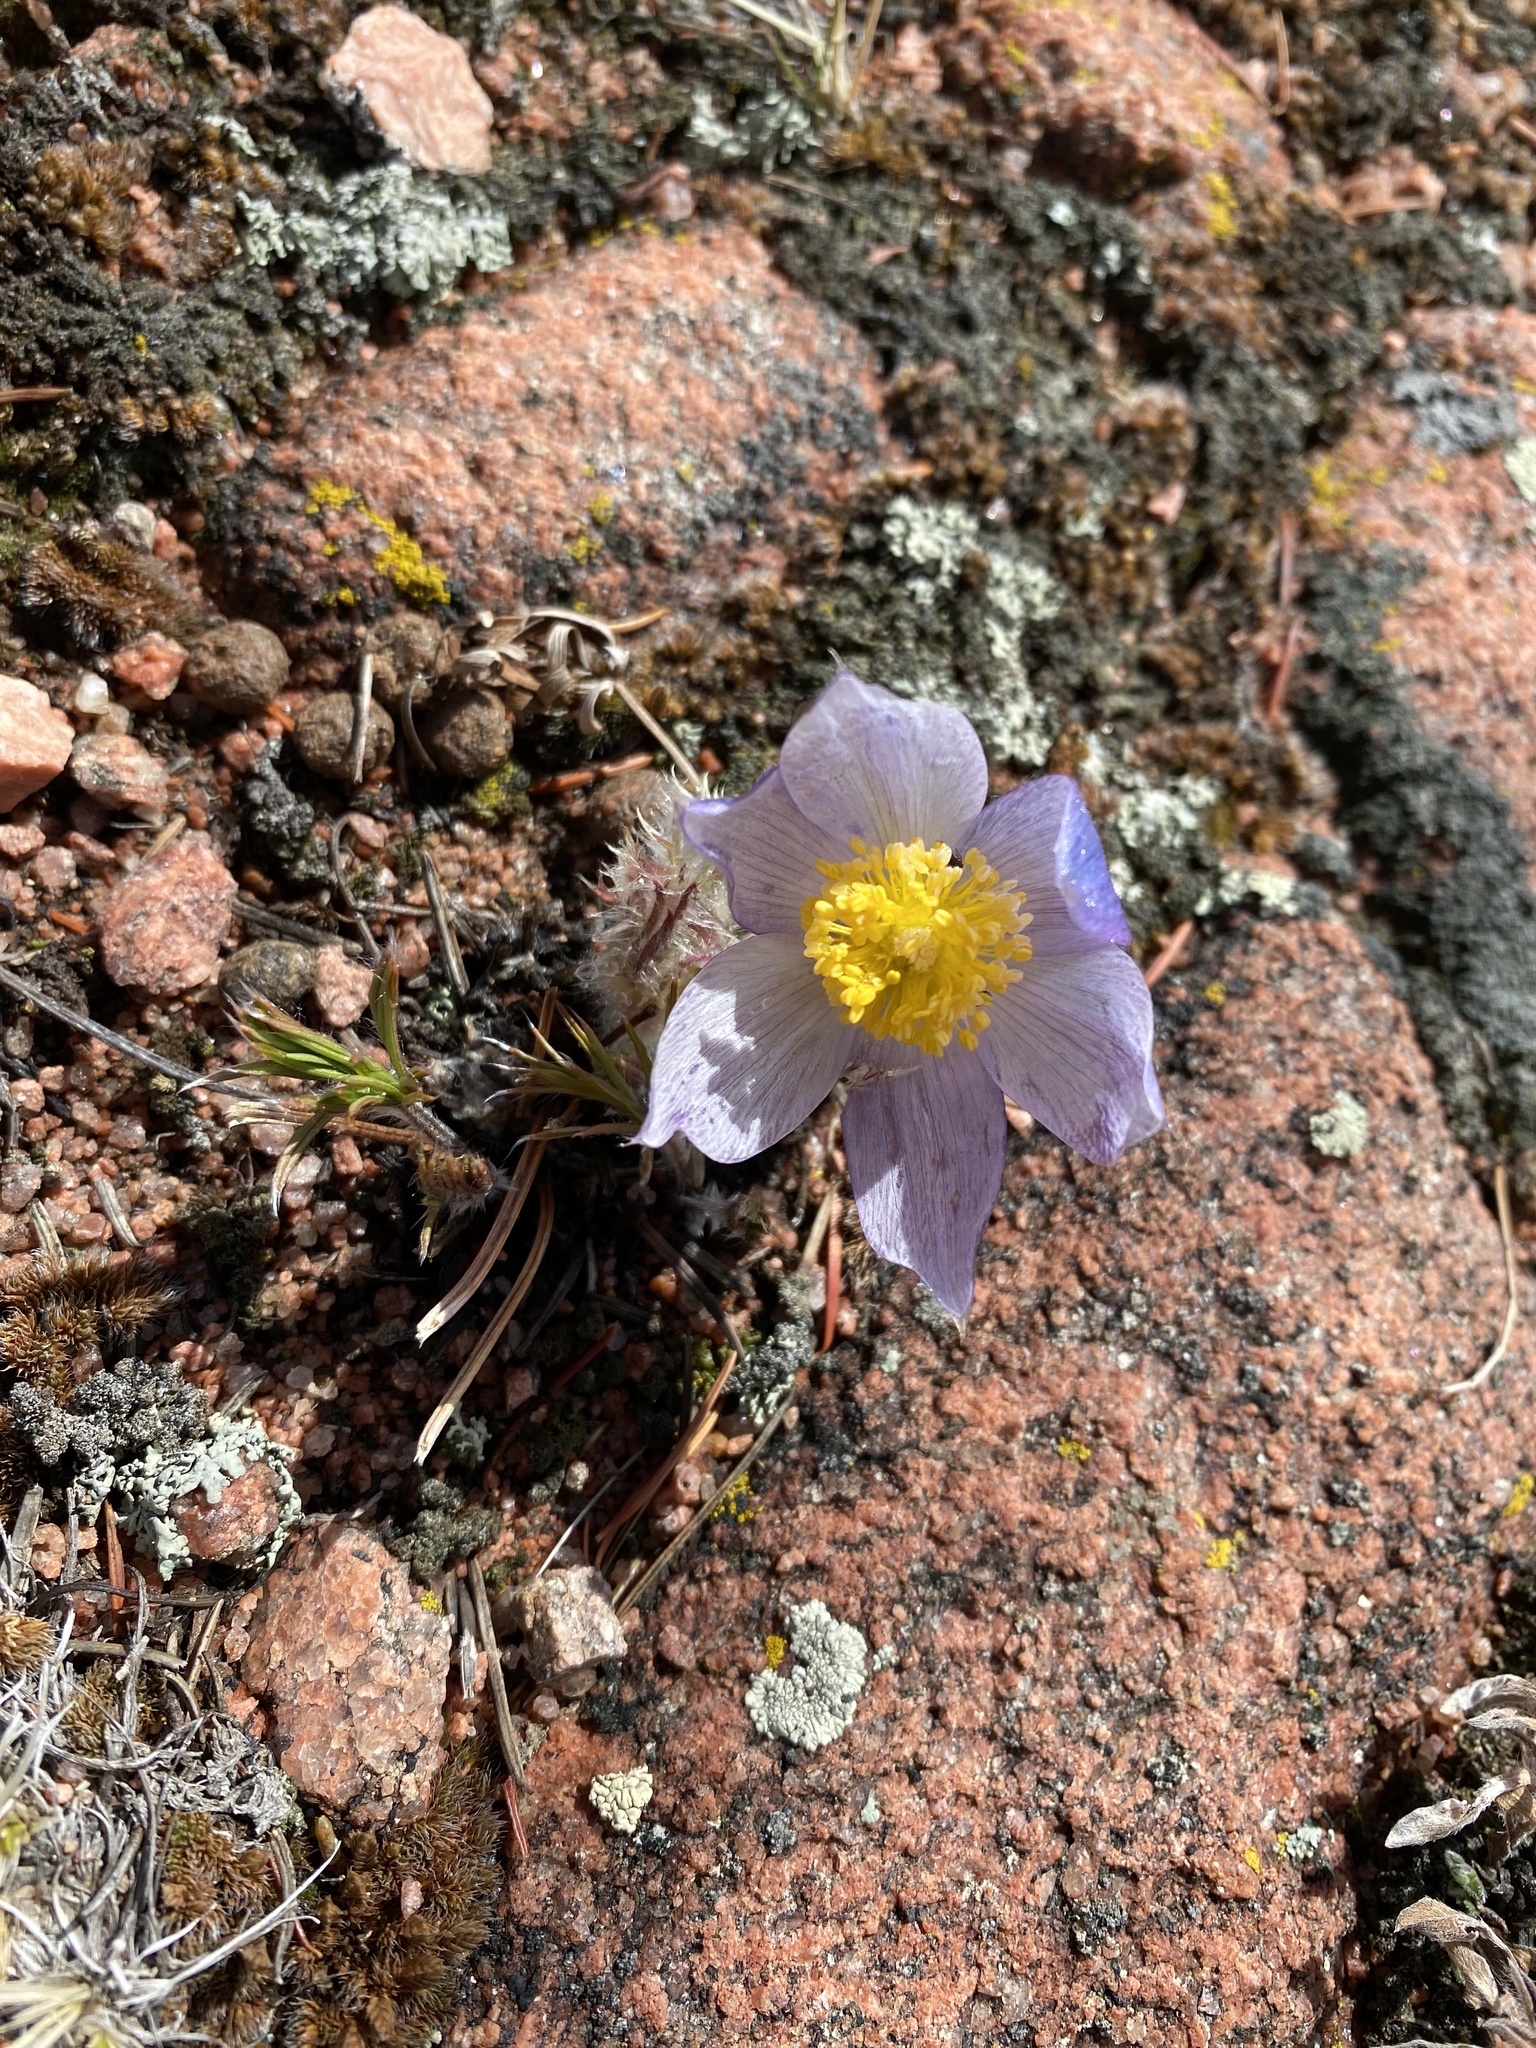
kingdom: Plantae
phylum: Tracheophyta
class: Magnoliopsida
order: Ranunculales
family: Ranunculaceae
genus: Pulsatilla
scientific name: Pulsatilla nuttalliana
